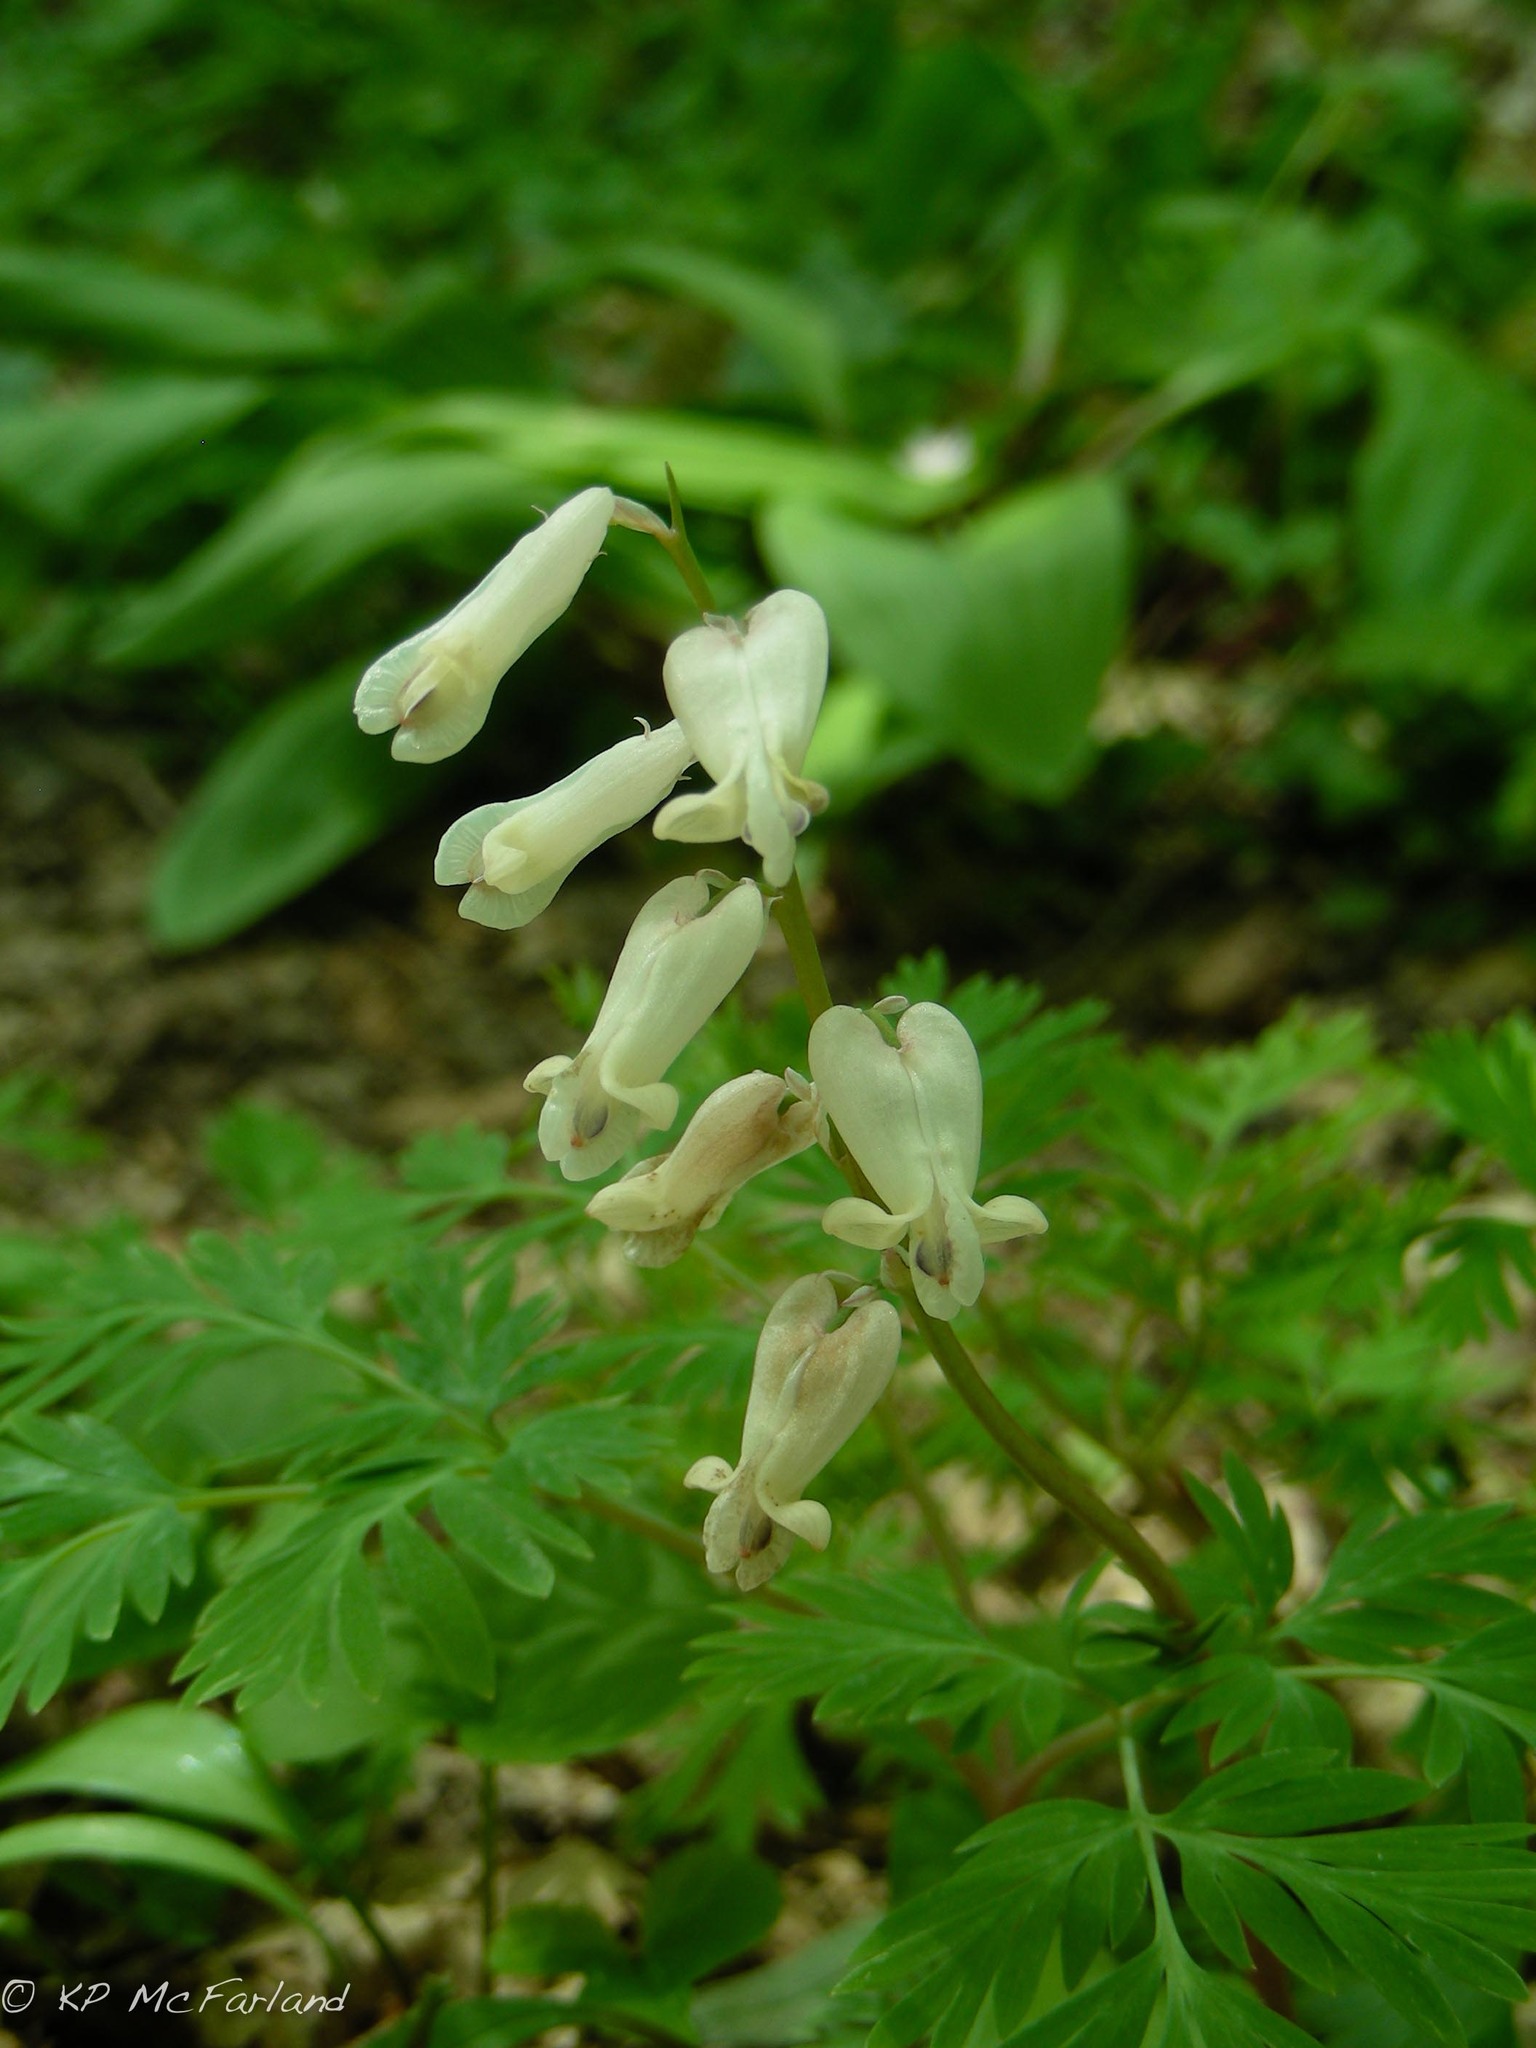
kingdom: Plantae
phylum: Tracheophyta
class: Magnoliopsida
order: Ranunculales
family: Papaveraceae
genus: Dicentra
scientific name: Dicentra canadensis
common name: Squirrel-corn
